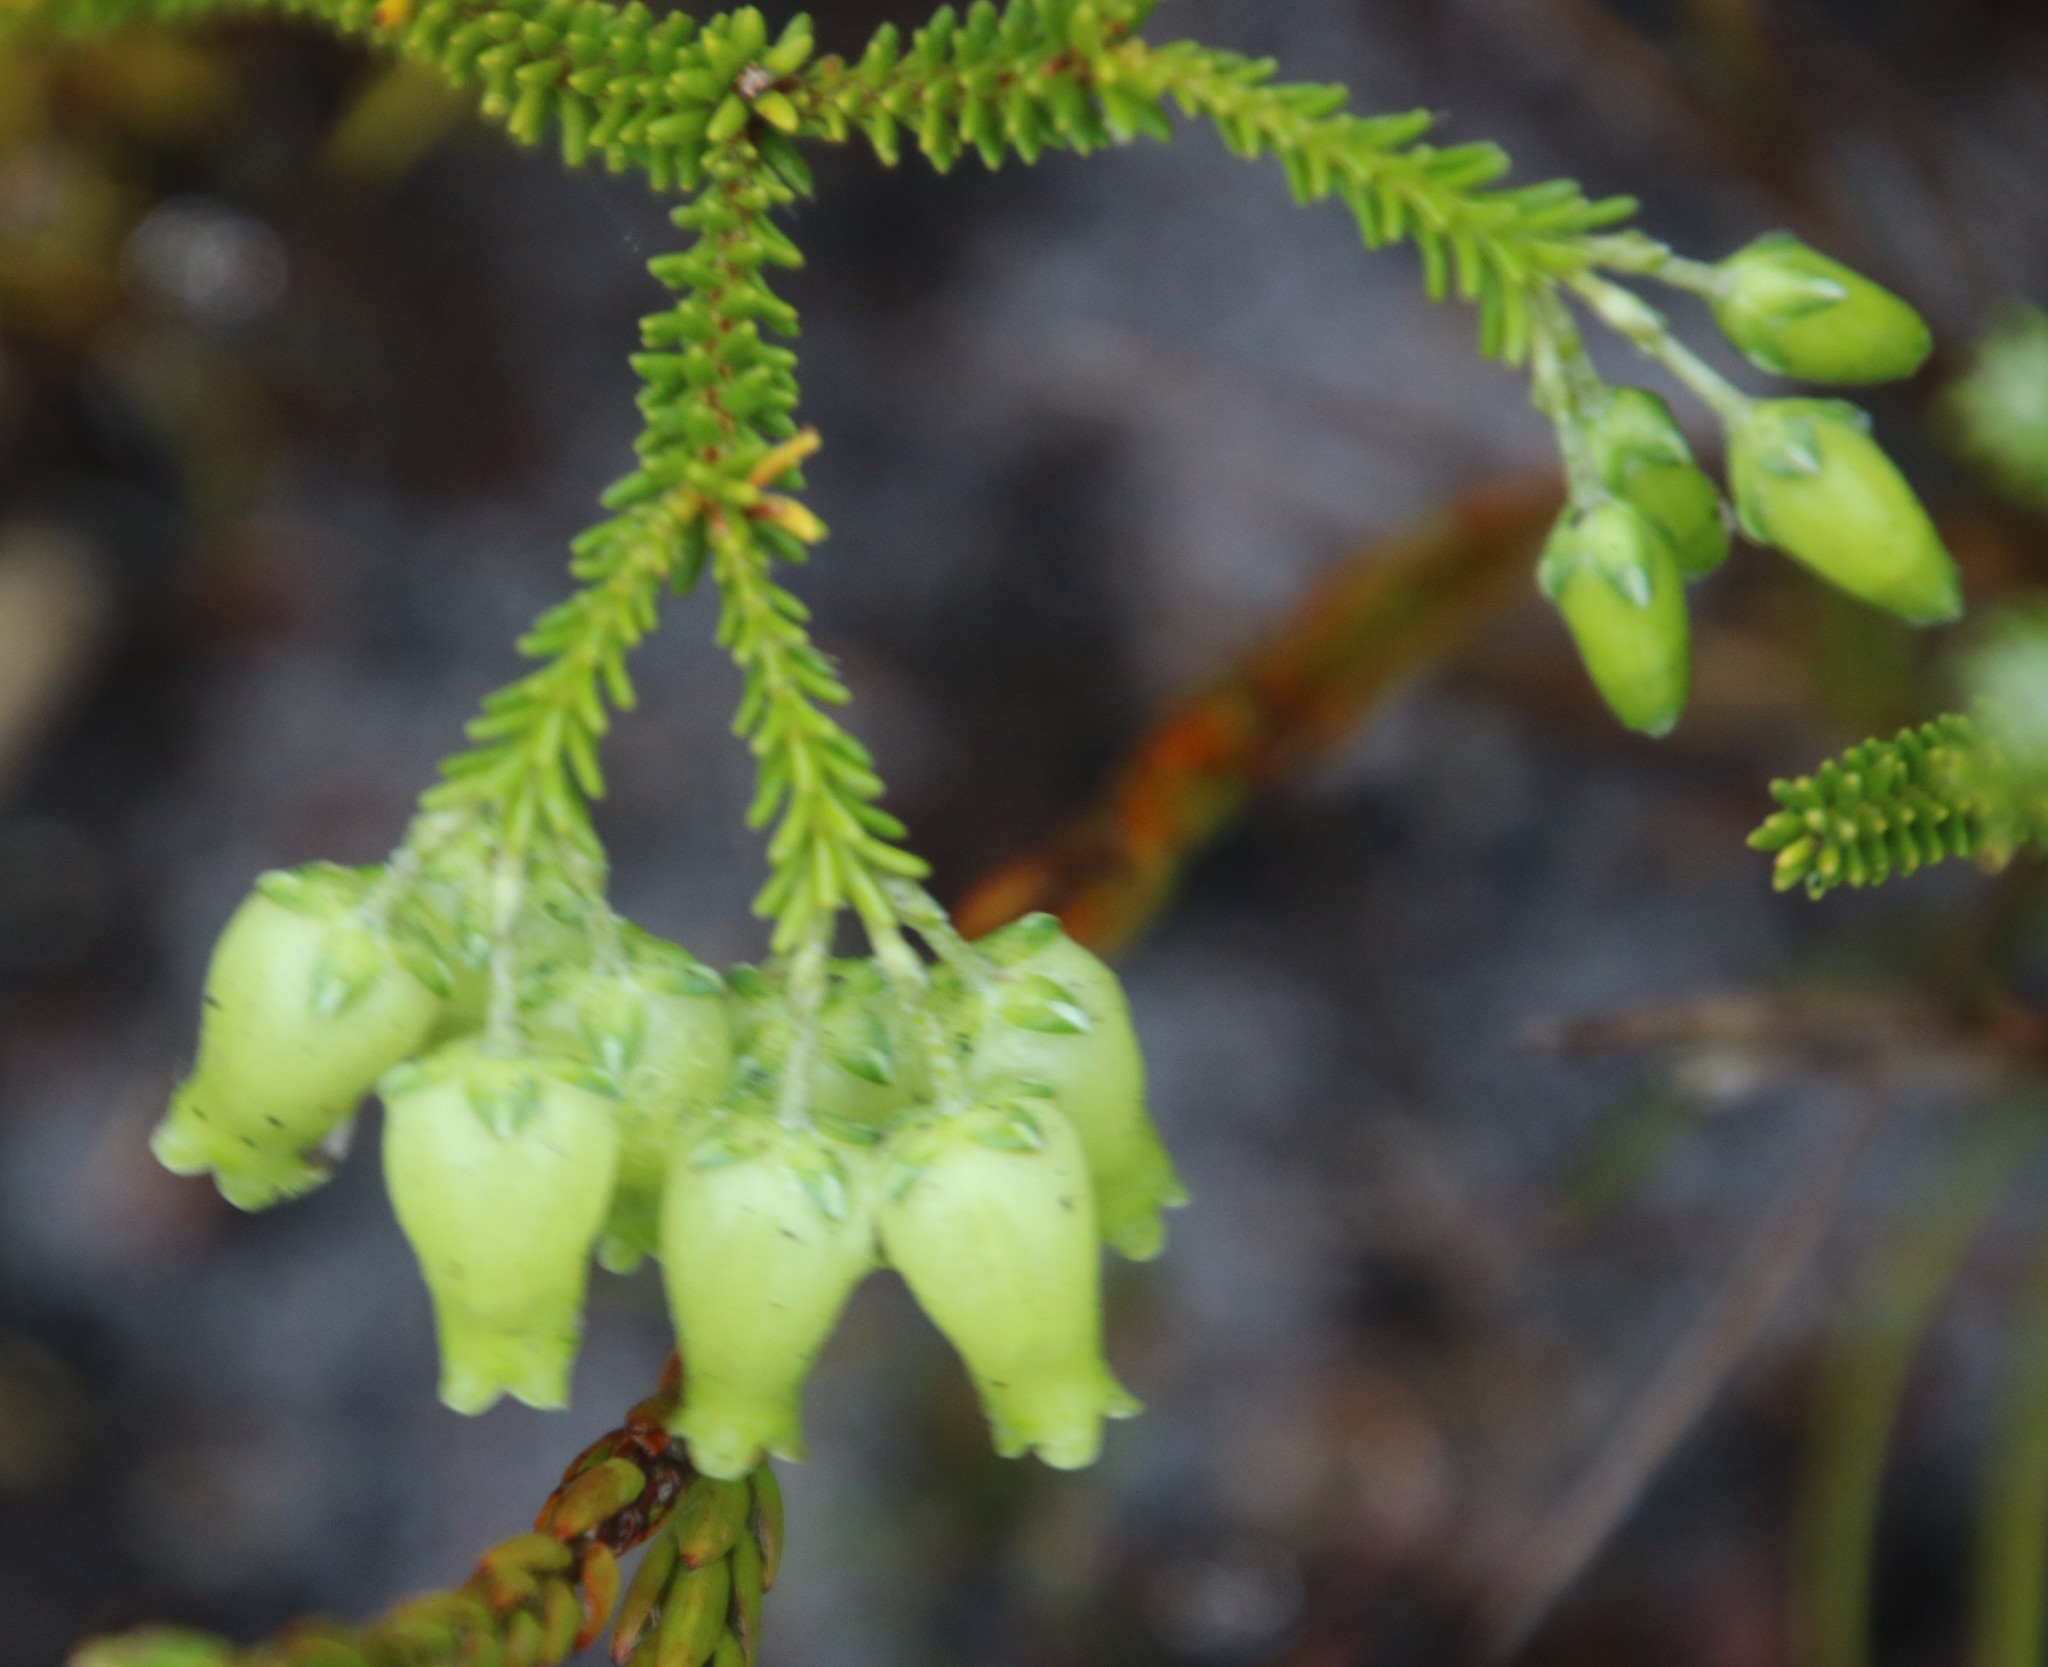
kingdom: Plantae
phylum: Tracheophyta
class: Magnoliopsida
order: Ericales
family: Ericaceae
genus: Erica
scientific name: Erica urna-viridis
